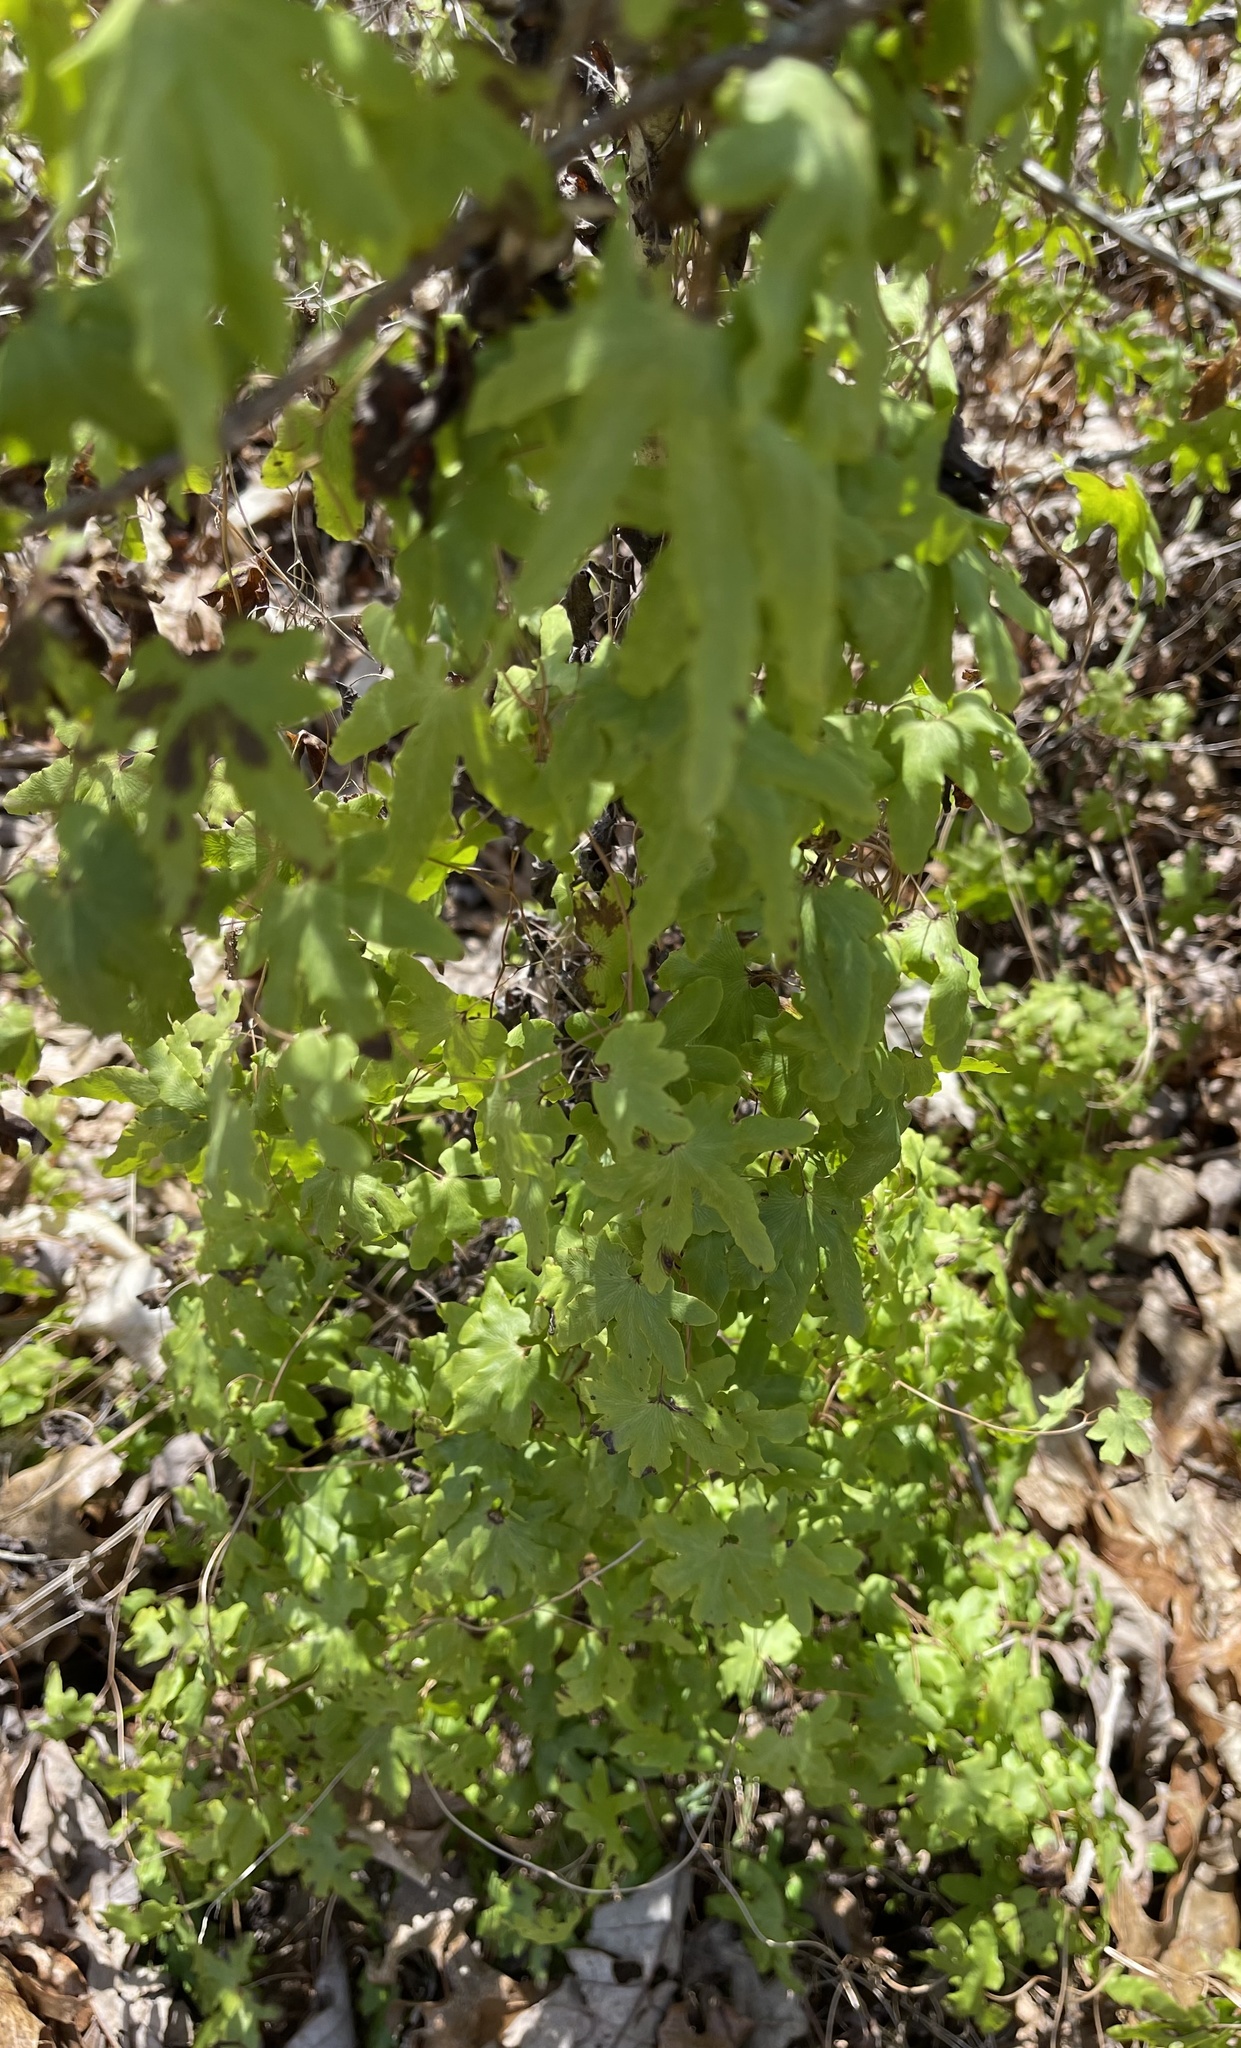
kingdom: Plantae
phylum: Tracheophyta
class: Polypodiopsida
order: Schizaeales
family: Lygodiaceae
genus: Lygodium
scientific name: Lygodium palmatum
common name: American climbing fern
